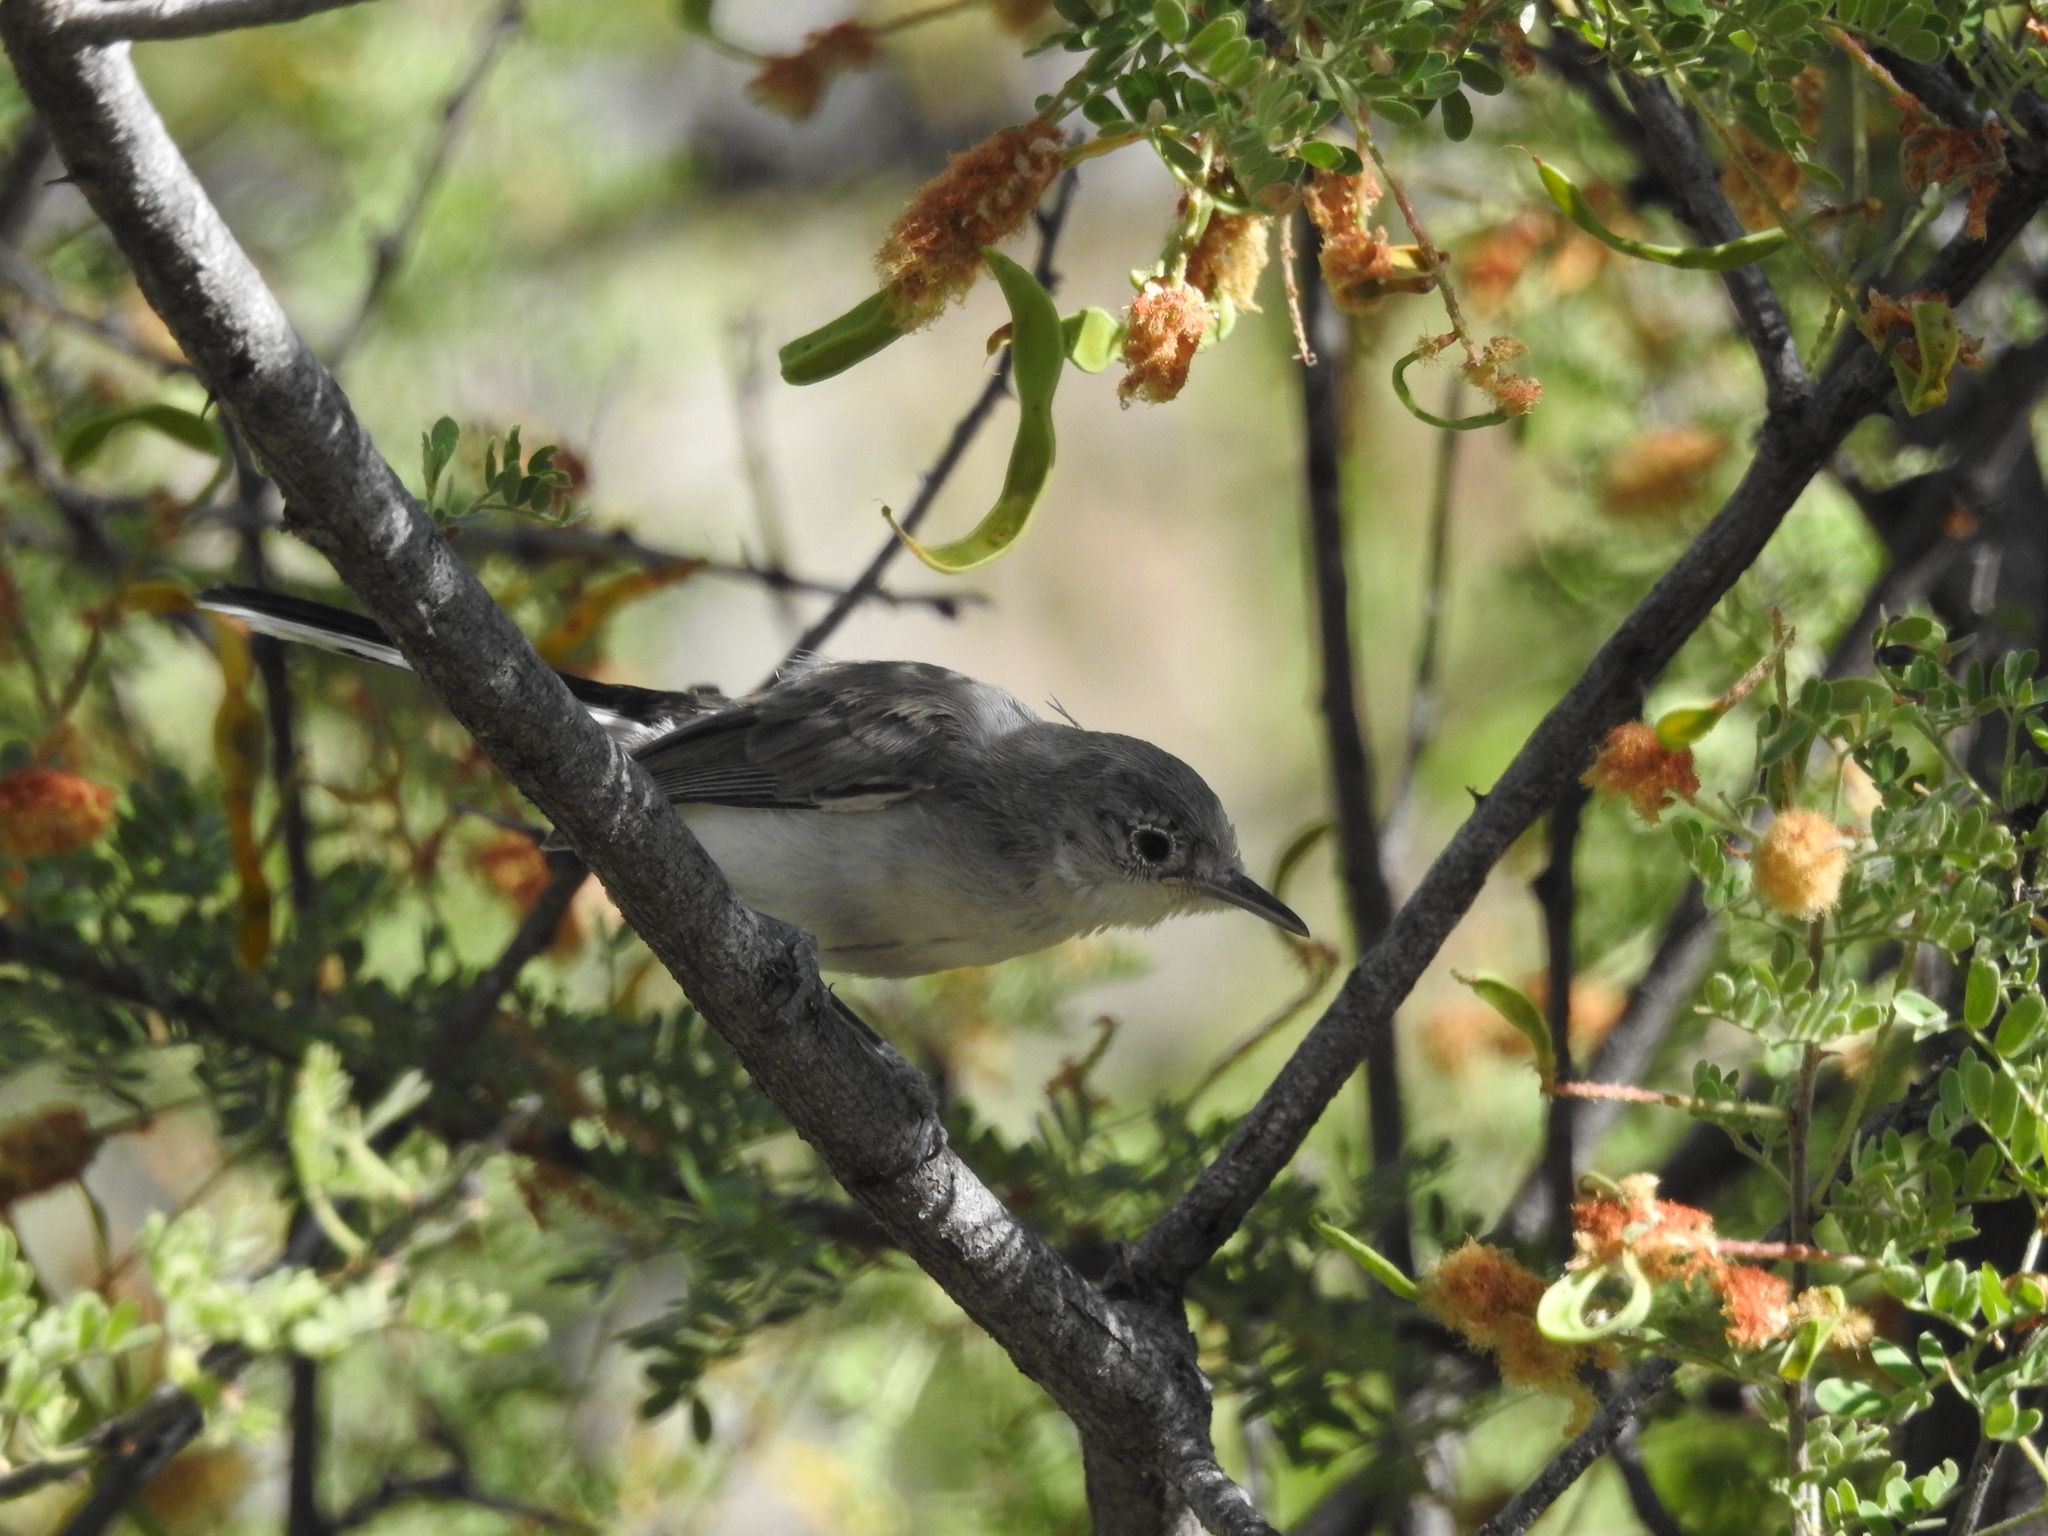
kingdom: Animalia
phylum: Chordata
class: Aves
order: Passeriformes
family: Polioptilidae
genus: Polioptila
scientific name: Polioptila nigriceps
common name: Black-capped gnatcatcher
